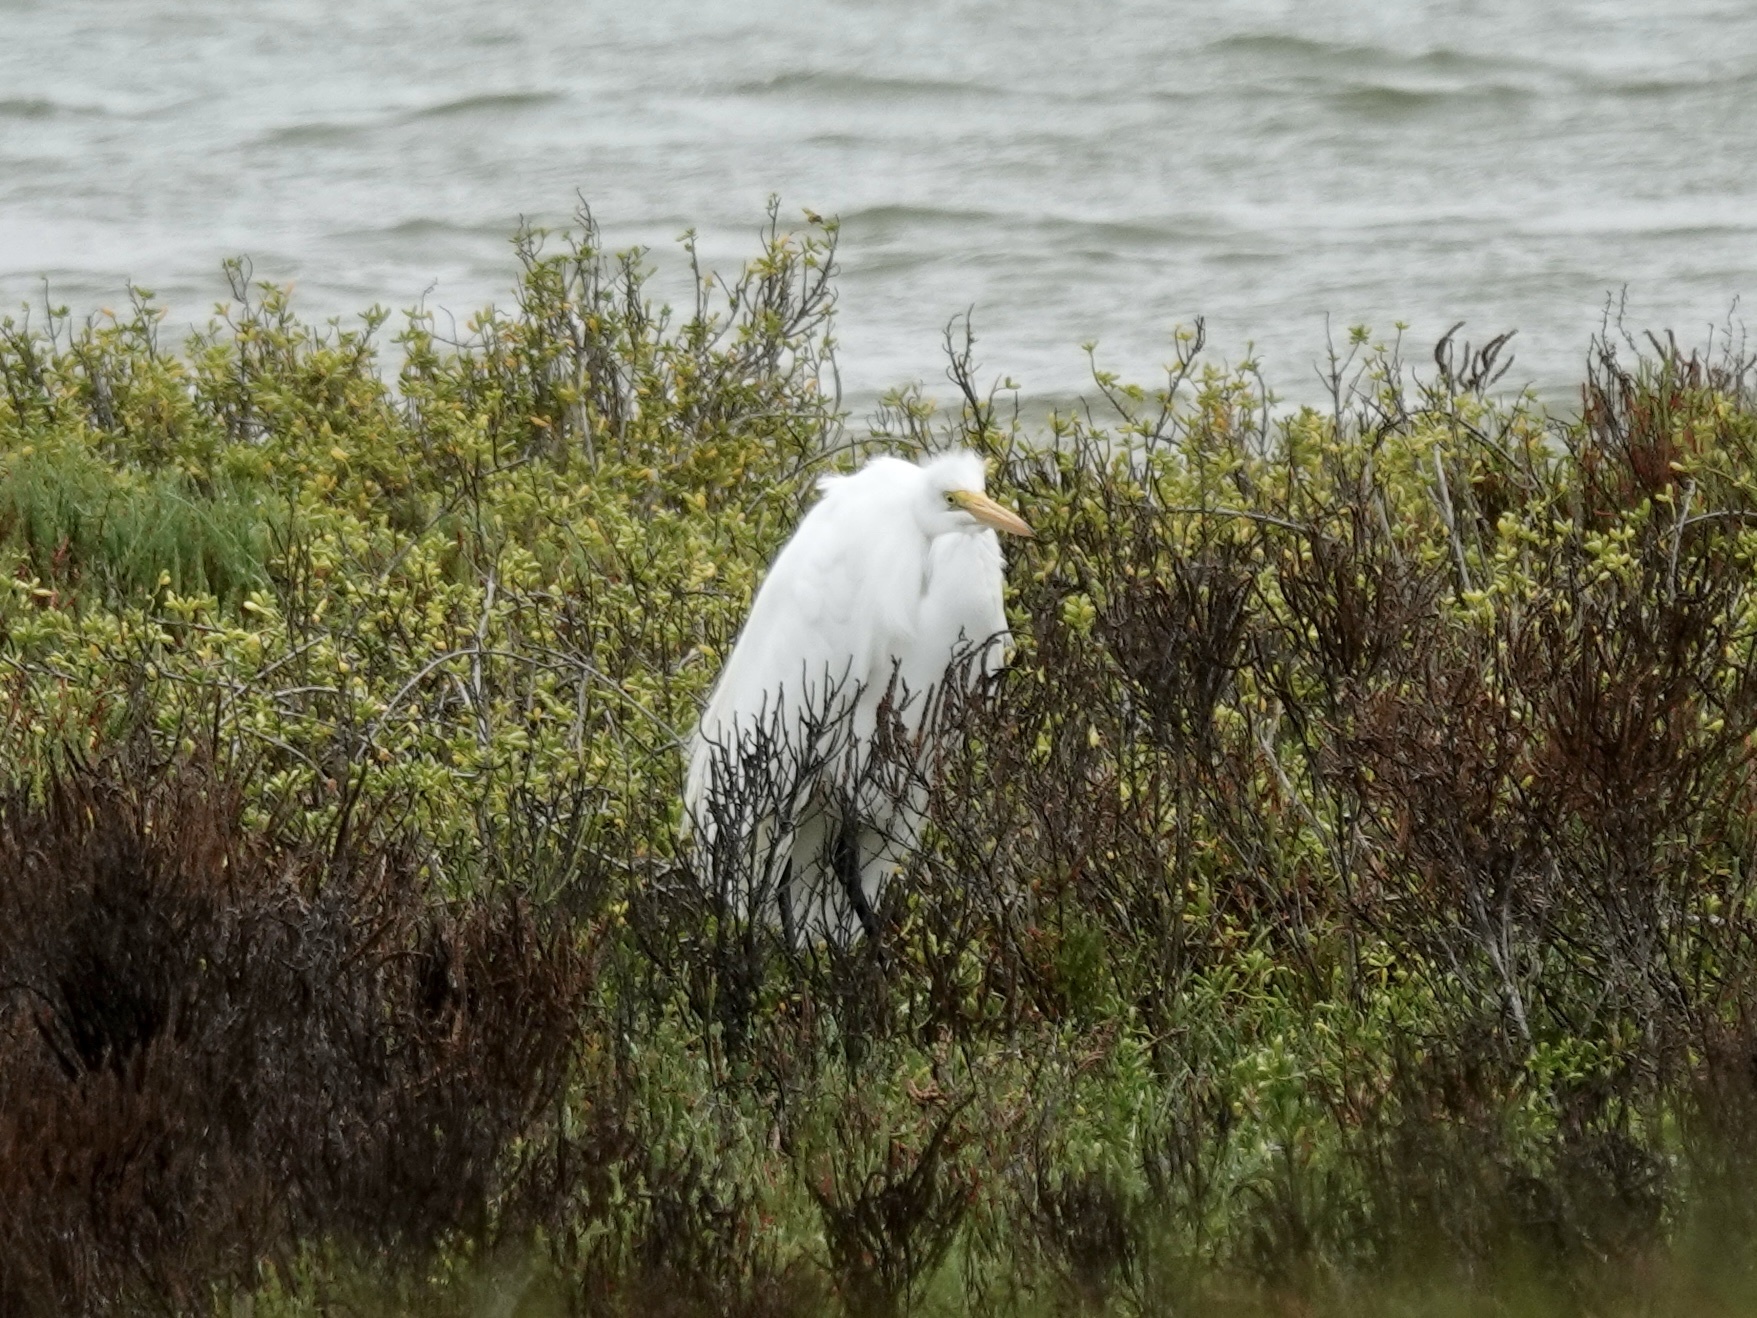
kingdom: Animalia
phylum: Chordata
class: Aves
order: Pelecaniformes
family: Ardeidae
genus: Ardea
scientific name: Ardea alba
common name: Great egret
